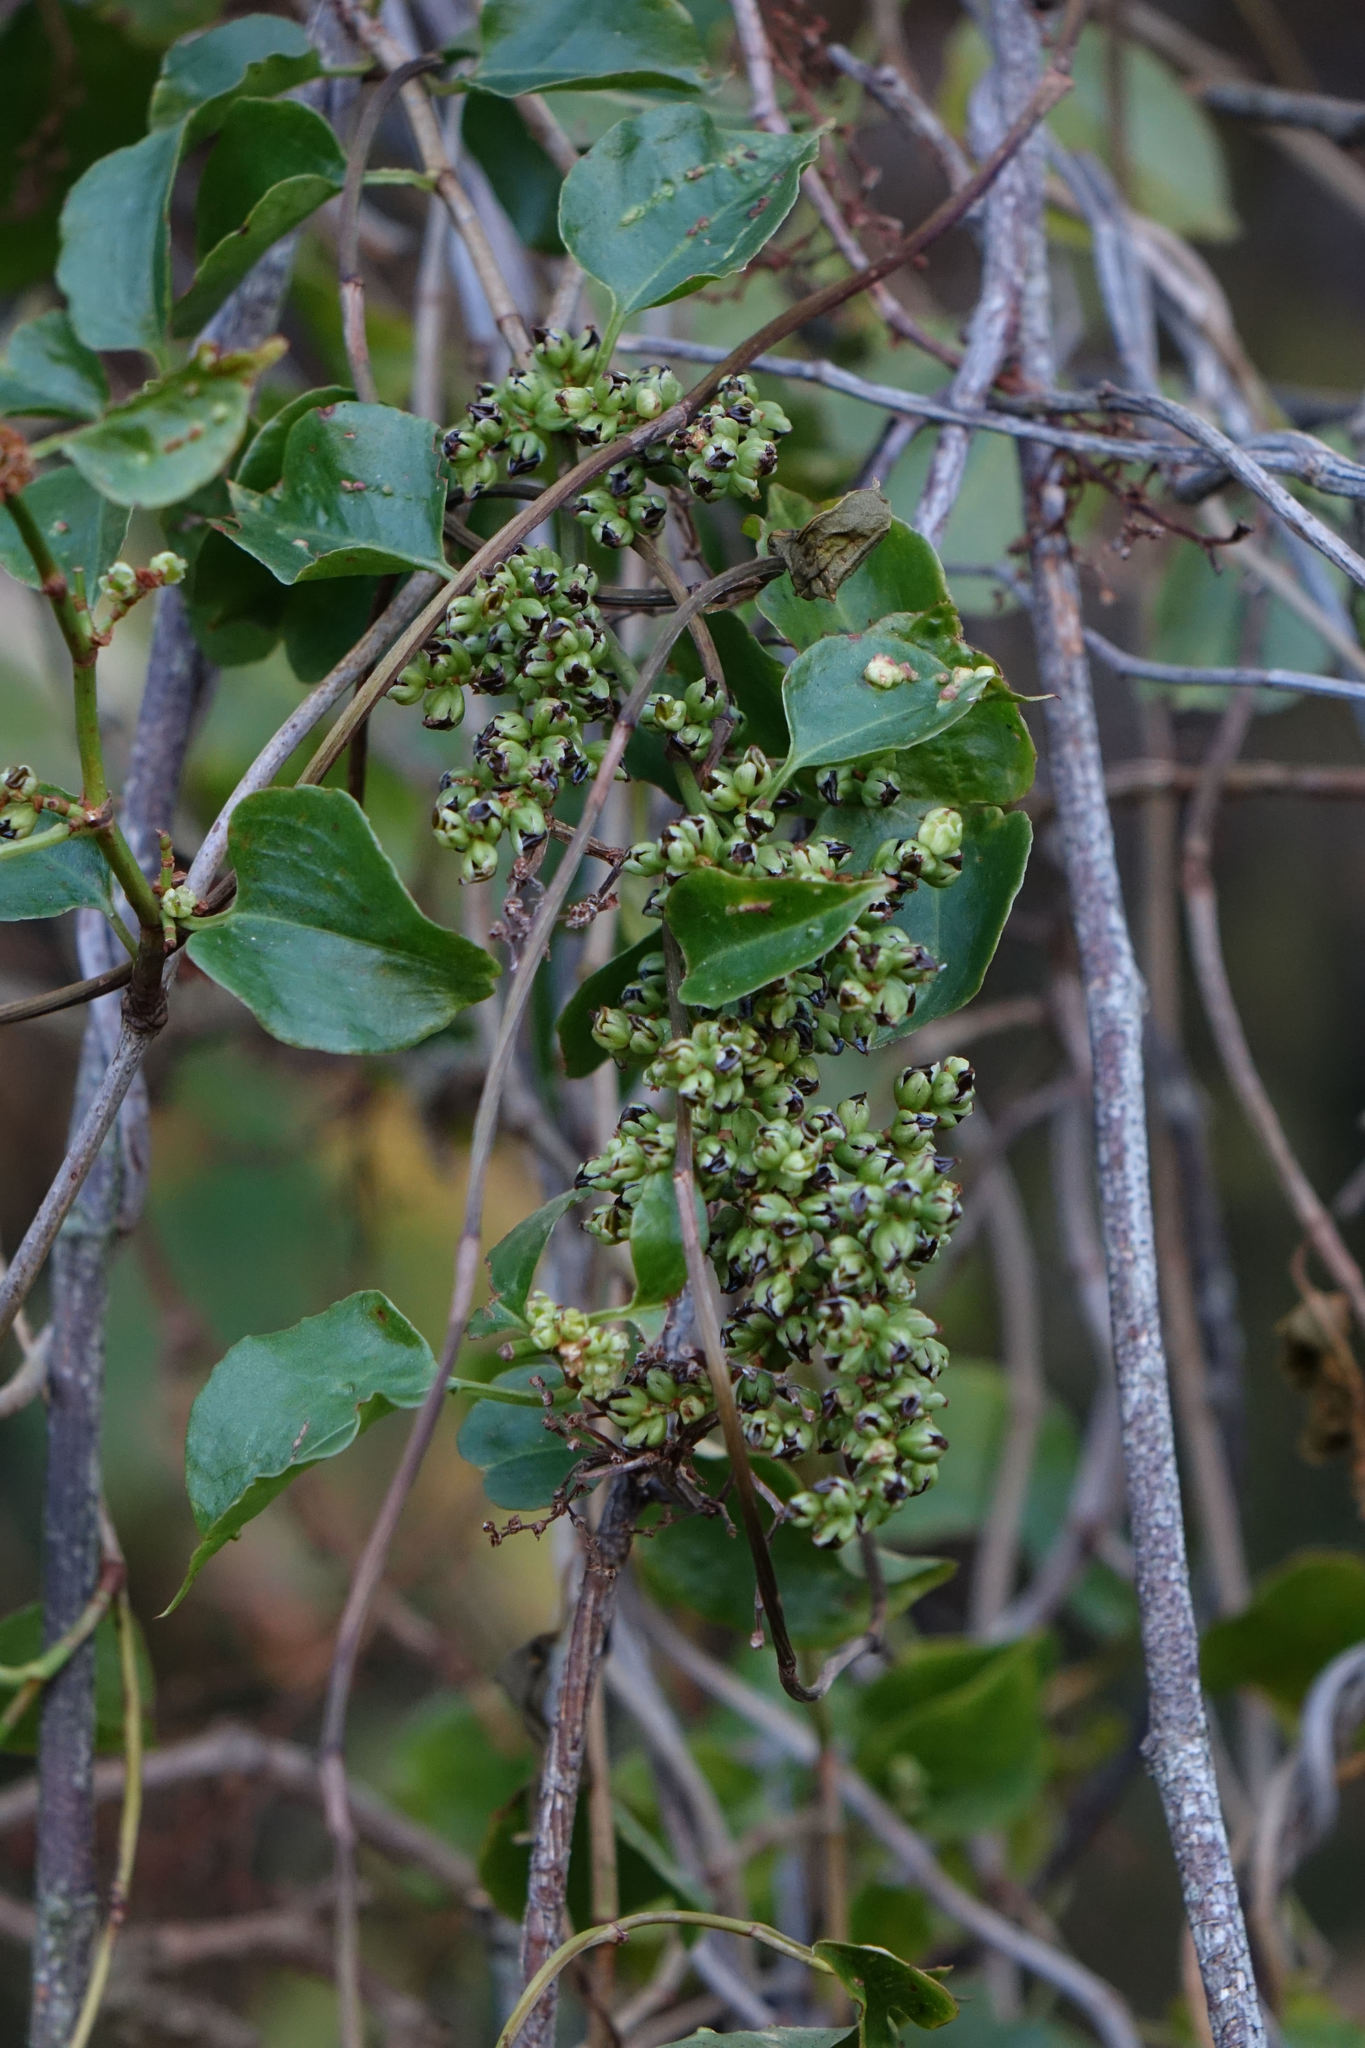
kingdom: Plantae
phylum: Tracheophyta
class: Magnoliopsida
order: Caryophyllales
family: Polygonaceae
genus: Muehlenbeckia
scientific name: Muehlenbeckia australis
